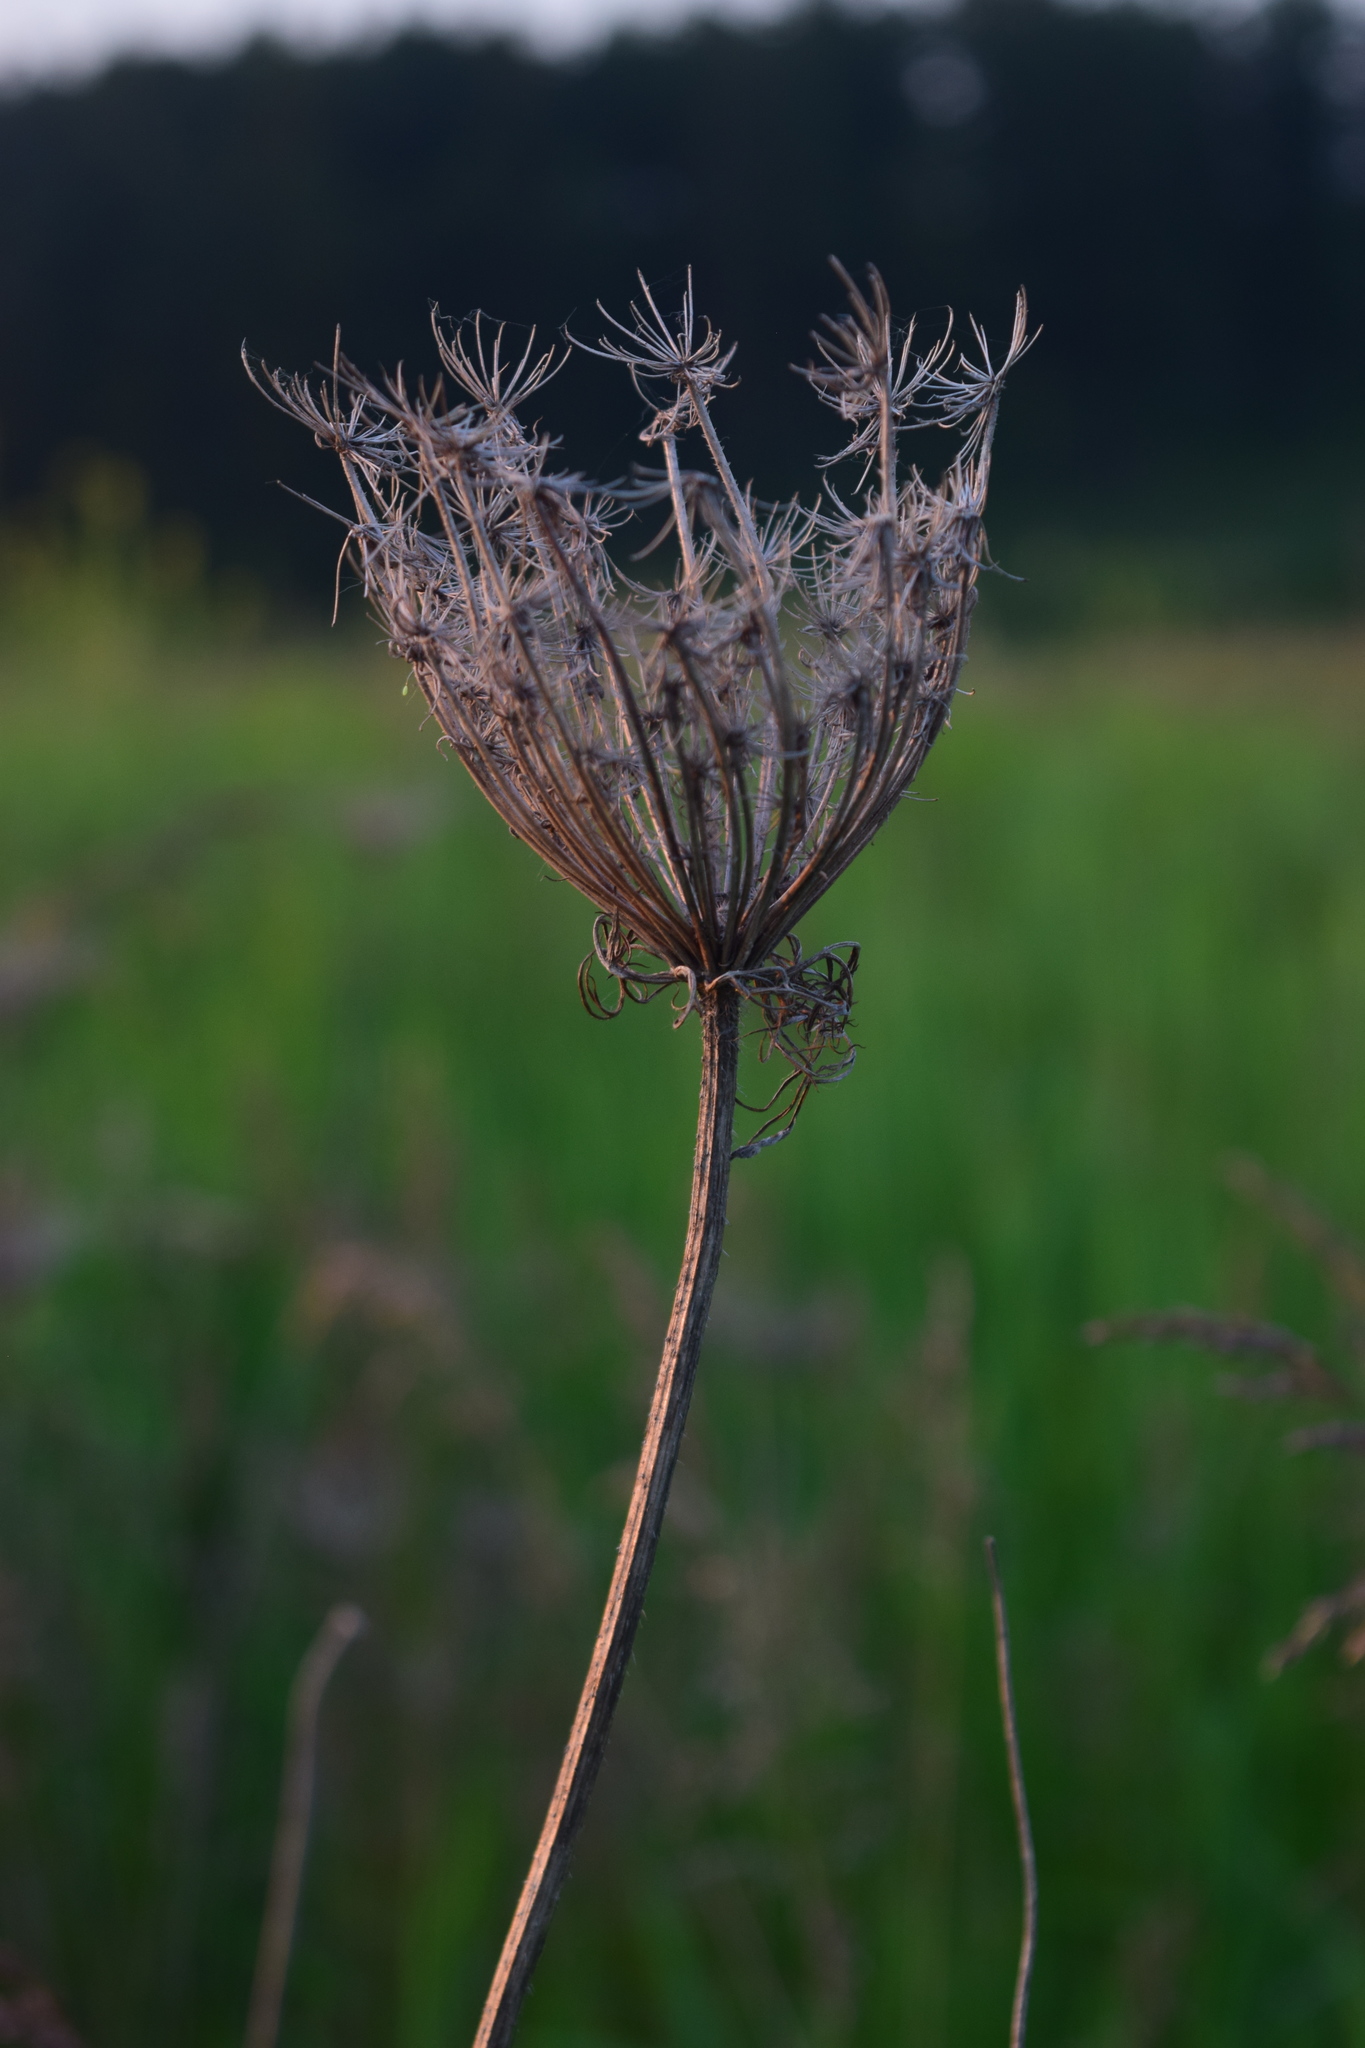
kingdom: Plantae
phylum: Tracheophyta
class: Magnoliopsida
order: Apiales
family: Apiaceae
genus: Daucus
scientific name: Daucus carota
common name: Wild carrot
